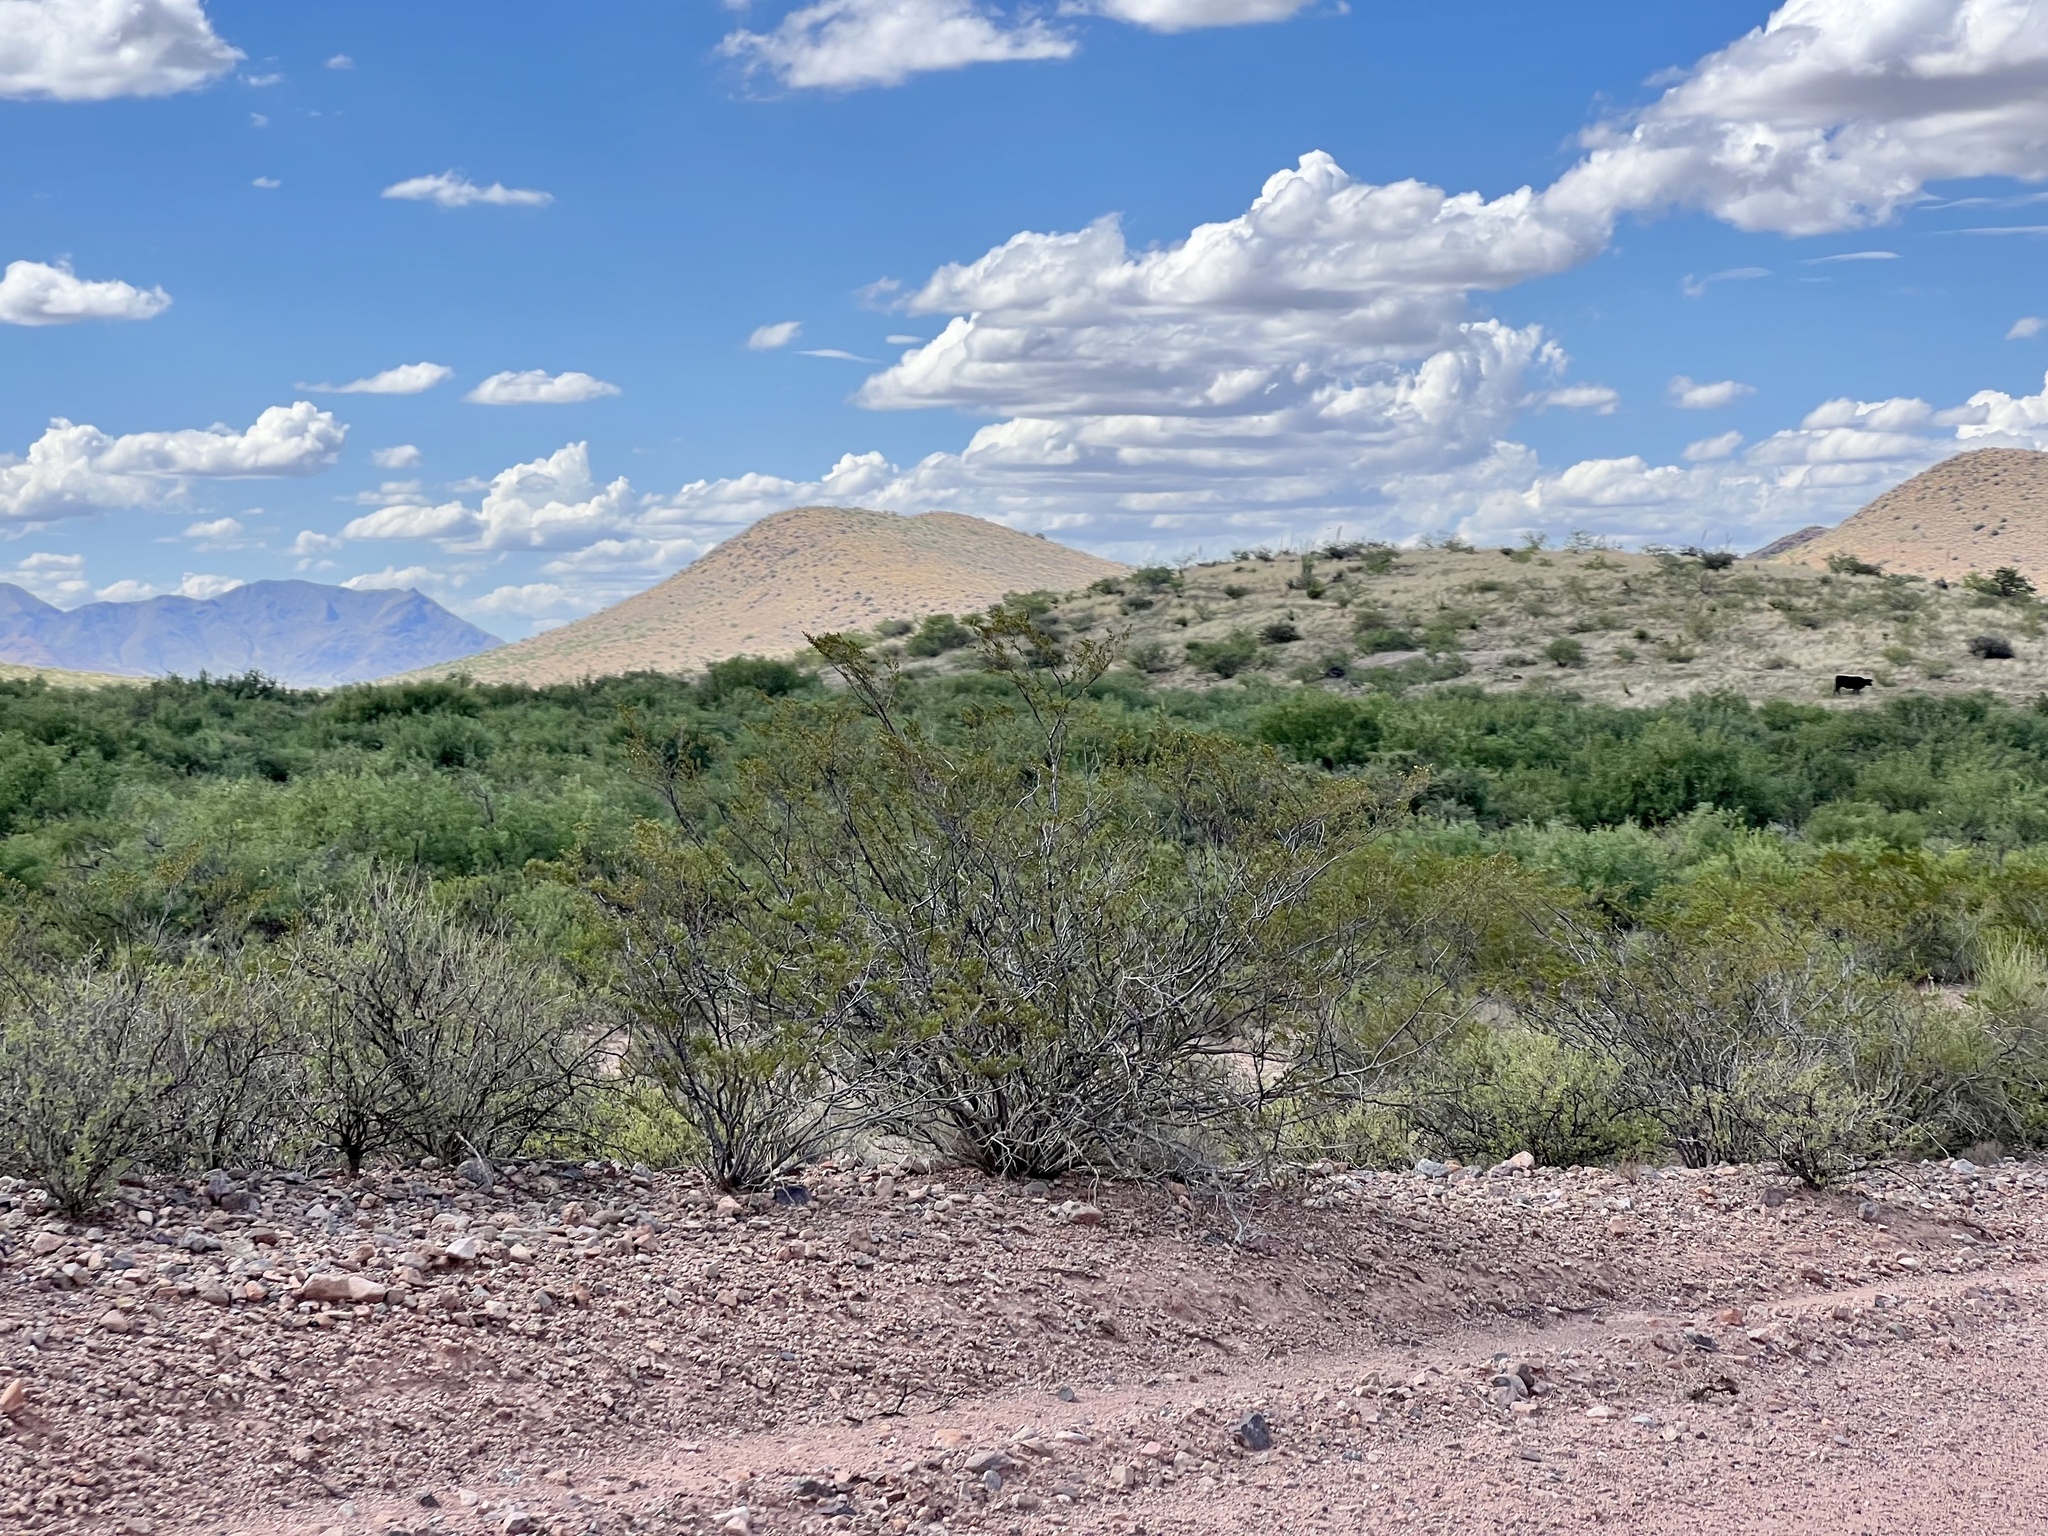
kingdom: Plantae
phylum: Tracheophyta
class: Magnoliopsida
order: Zygophyllales
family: Zygophyllaceae
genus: Larrea
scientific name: Larrea tridentata
